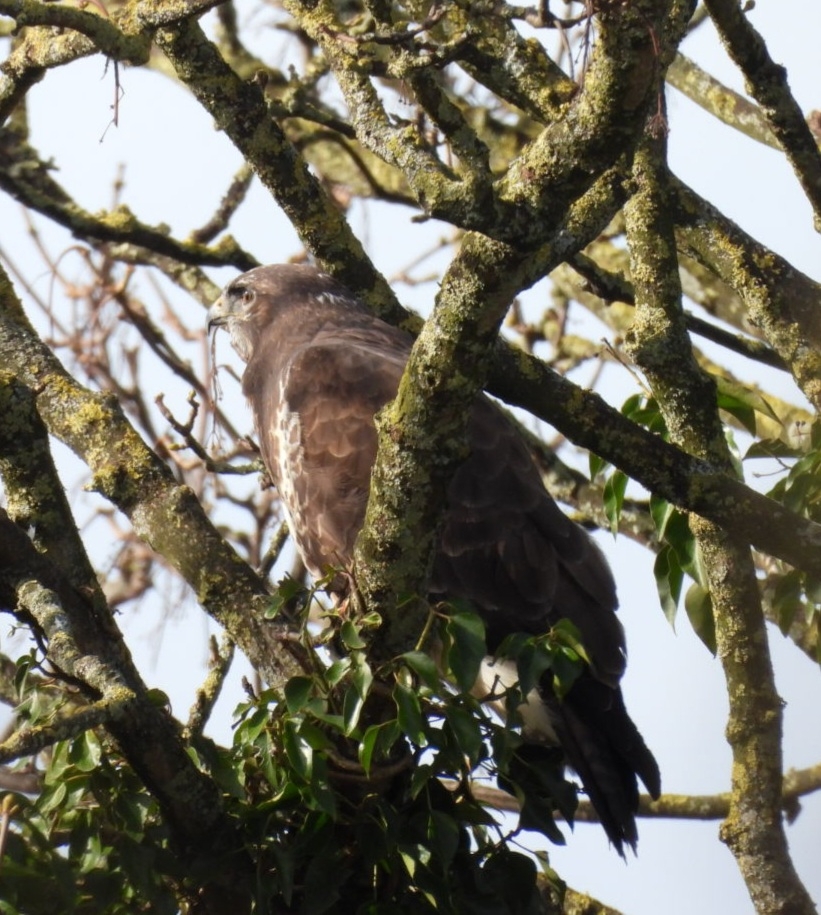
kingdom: Animalia
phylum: Chordata
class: Aves
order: Accipitriformes
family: Accipitridae
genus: Buteo
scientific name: Buteo buteo
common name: Common buzzard
